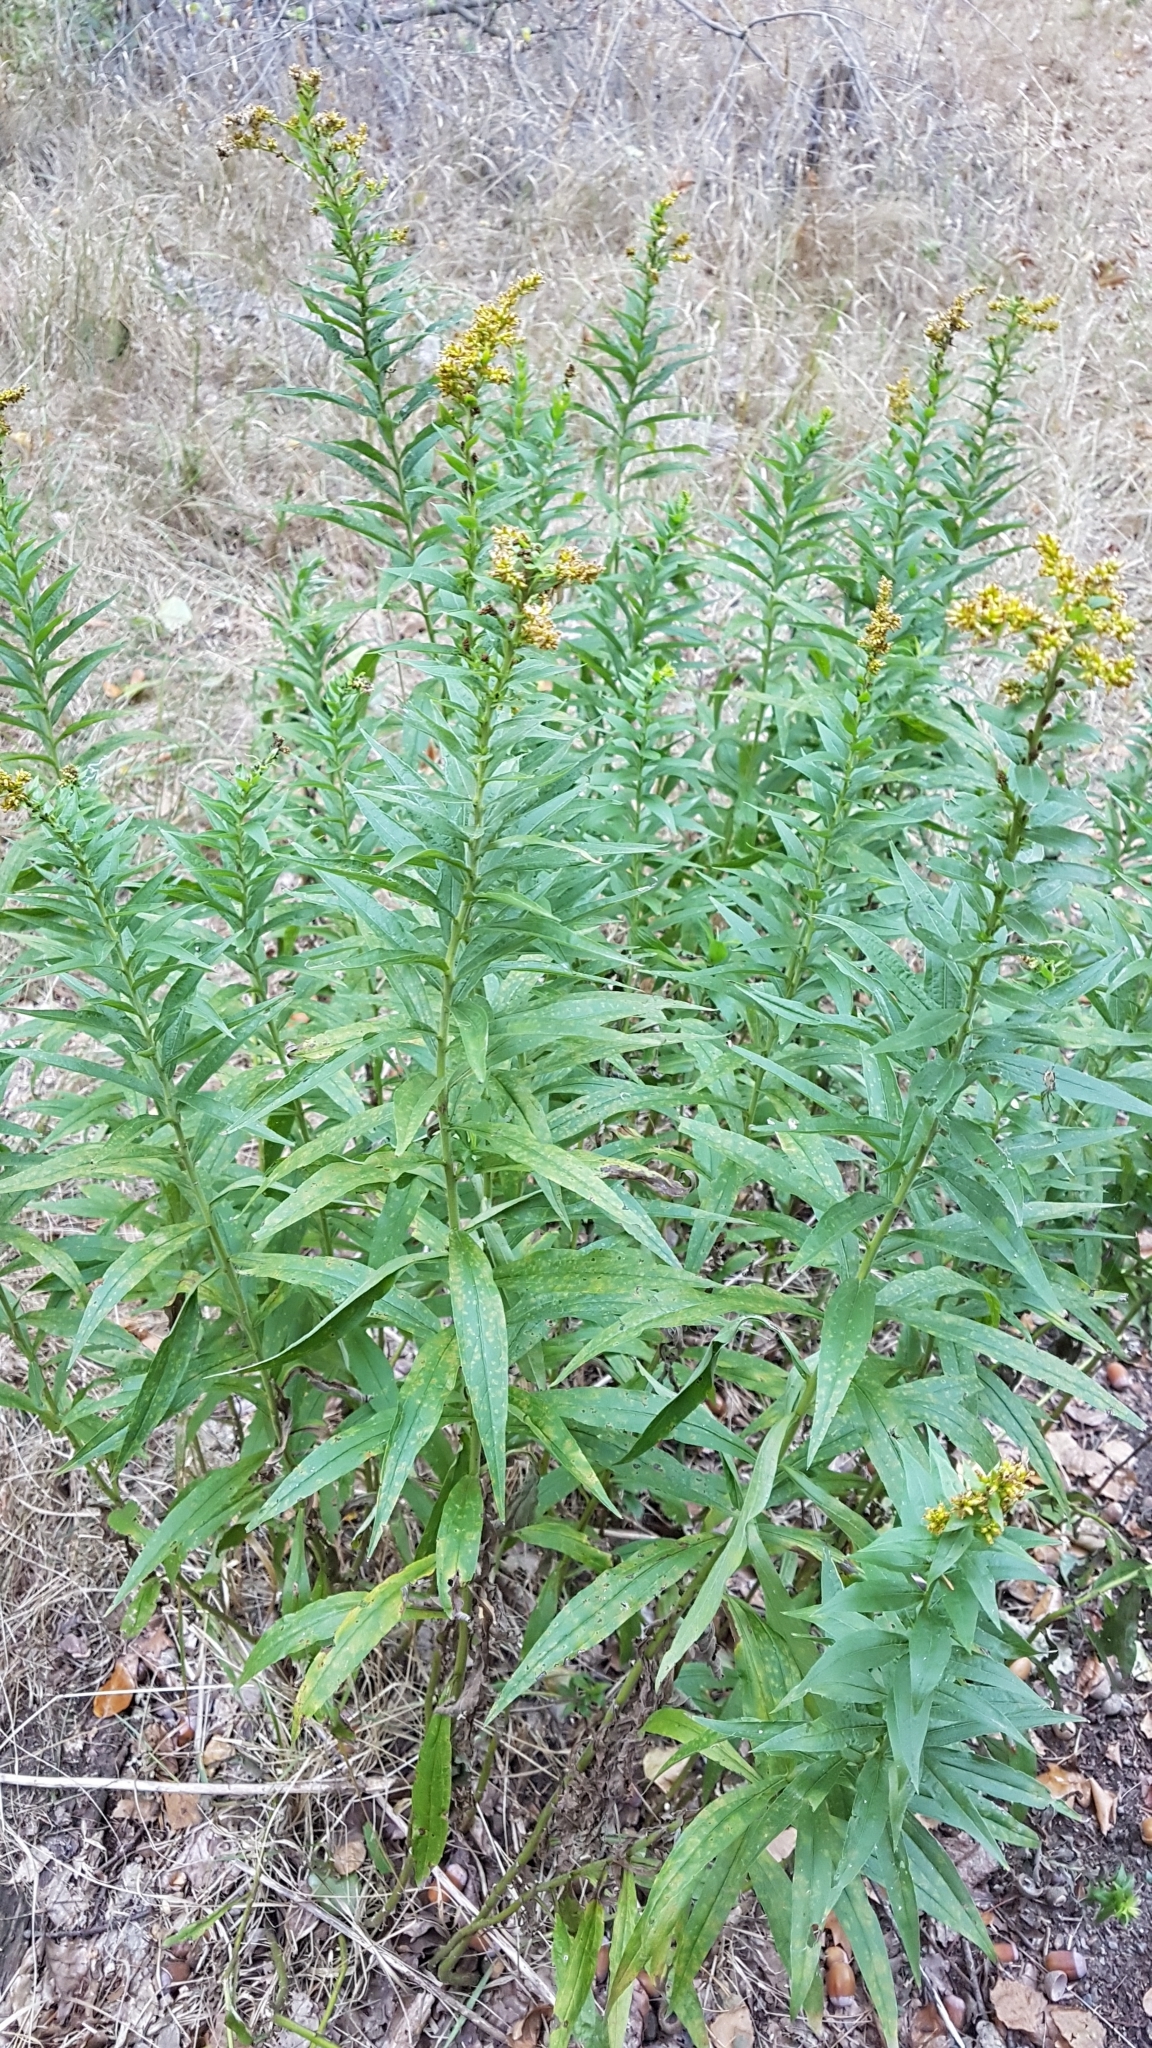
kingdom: Plantae
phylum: Tracheophyta
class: Magnoliopsida
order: Asterales
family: Asteraceae
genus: Solidago
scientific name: Solidago canadensis
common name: Canada goldenrod
